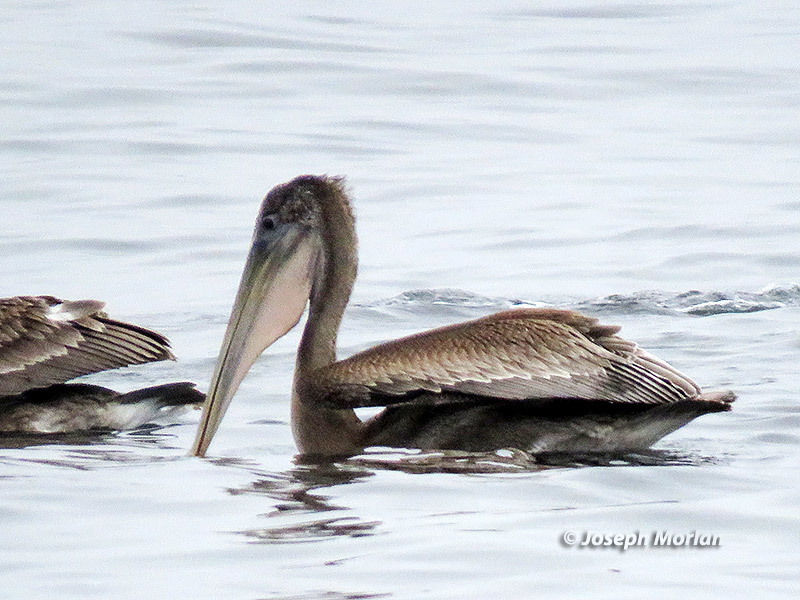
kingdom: Animalia
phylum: Chordata
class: Aves
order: Pelecaniformes
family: Pelecanidae
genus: Pelecanus
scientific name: Pelecanus occidentalis
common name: Brown pelican
